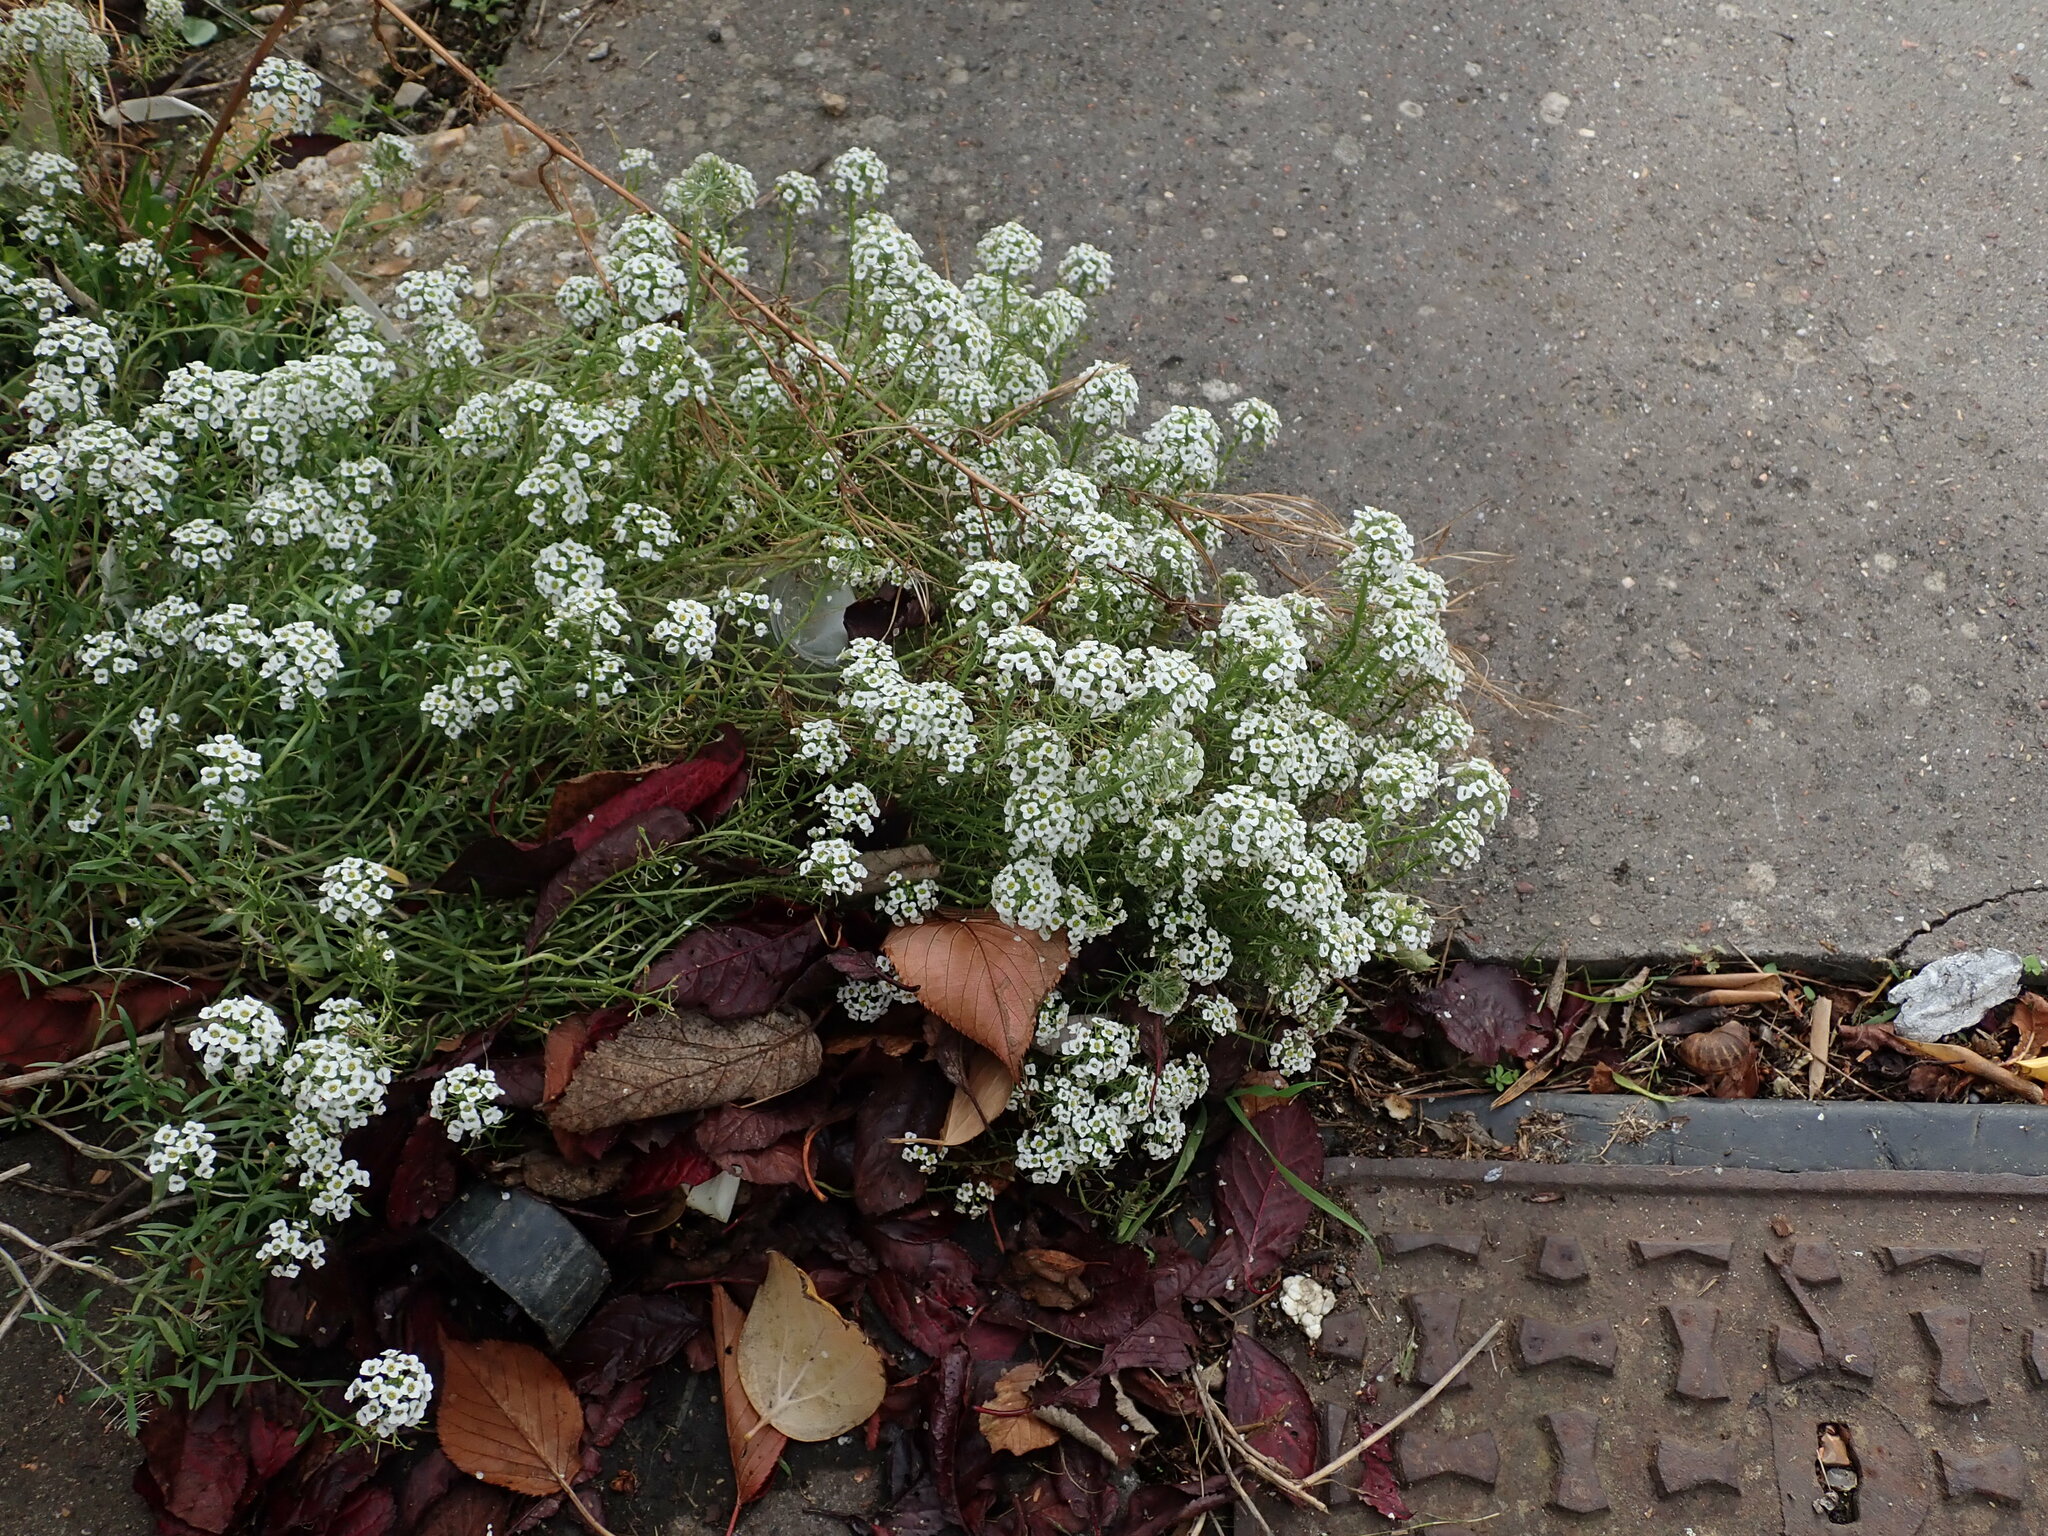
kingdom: Plantae
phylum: Tracheophyta
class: Magnoliopsida
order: Brassicales
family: Brassicaceae
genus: Lobularia
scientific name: Lobularia maritima
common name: Sweet alison
